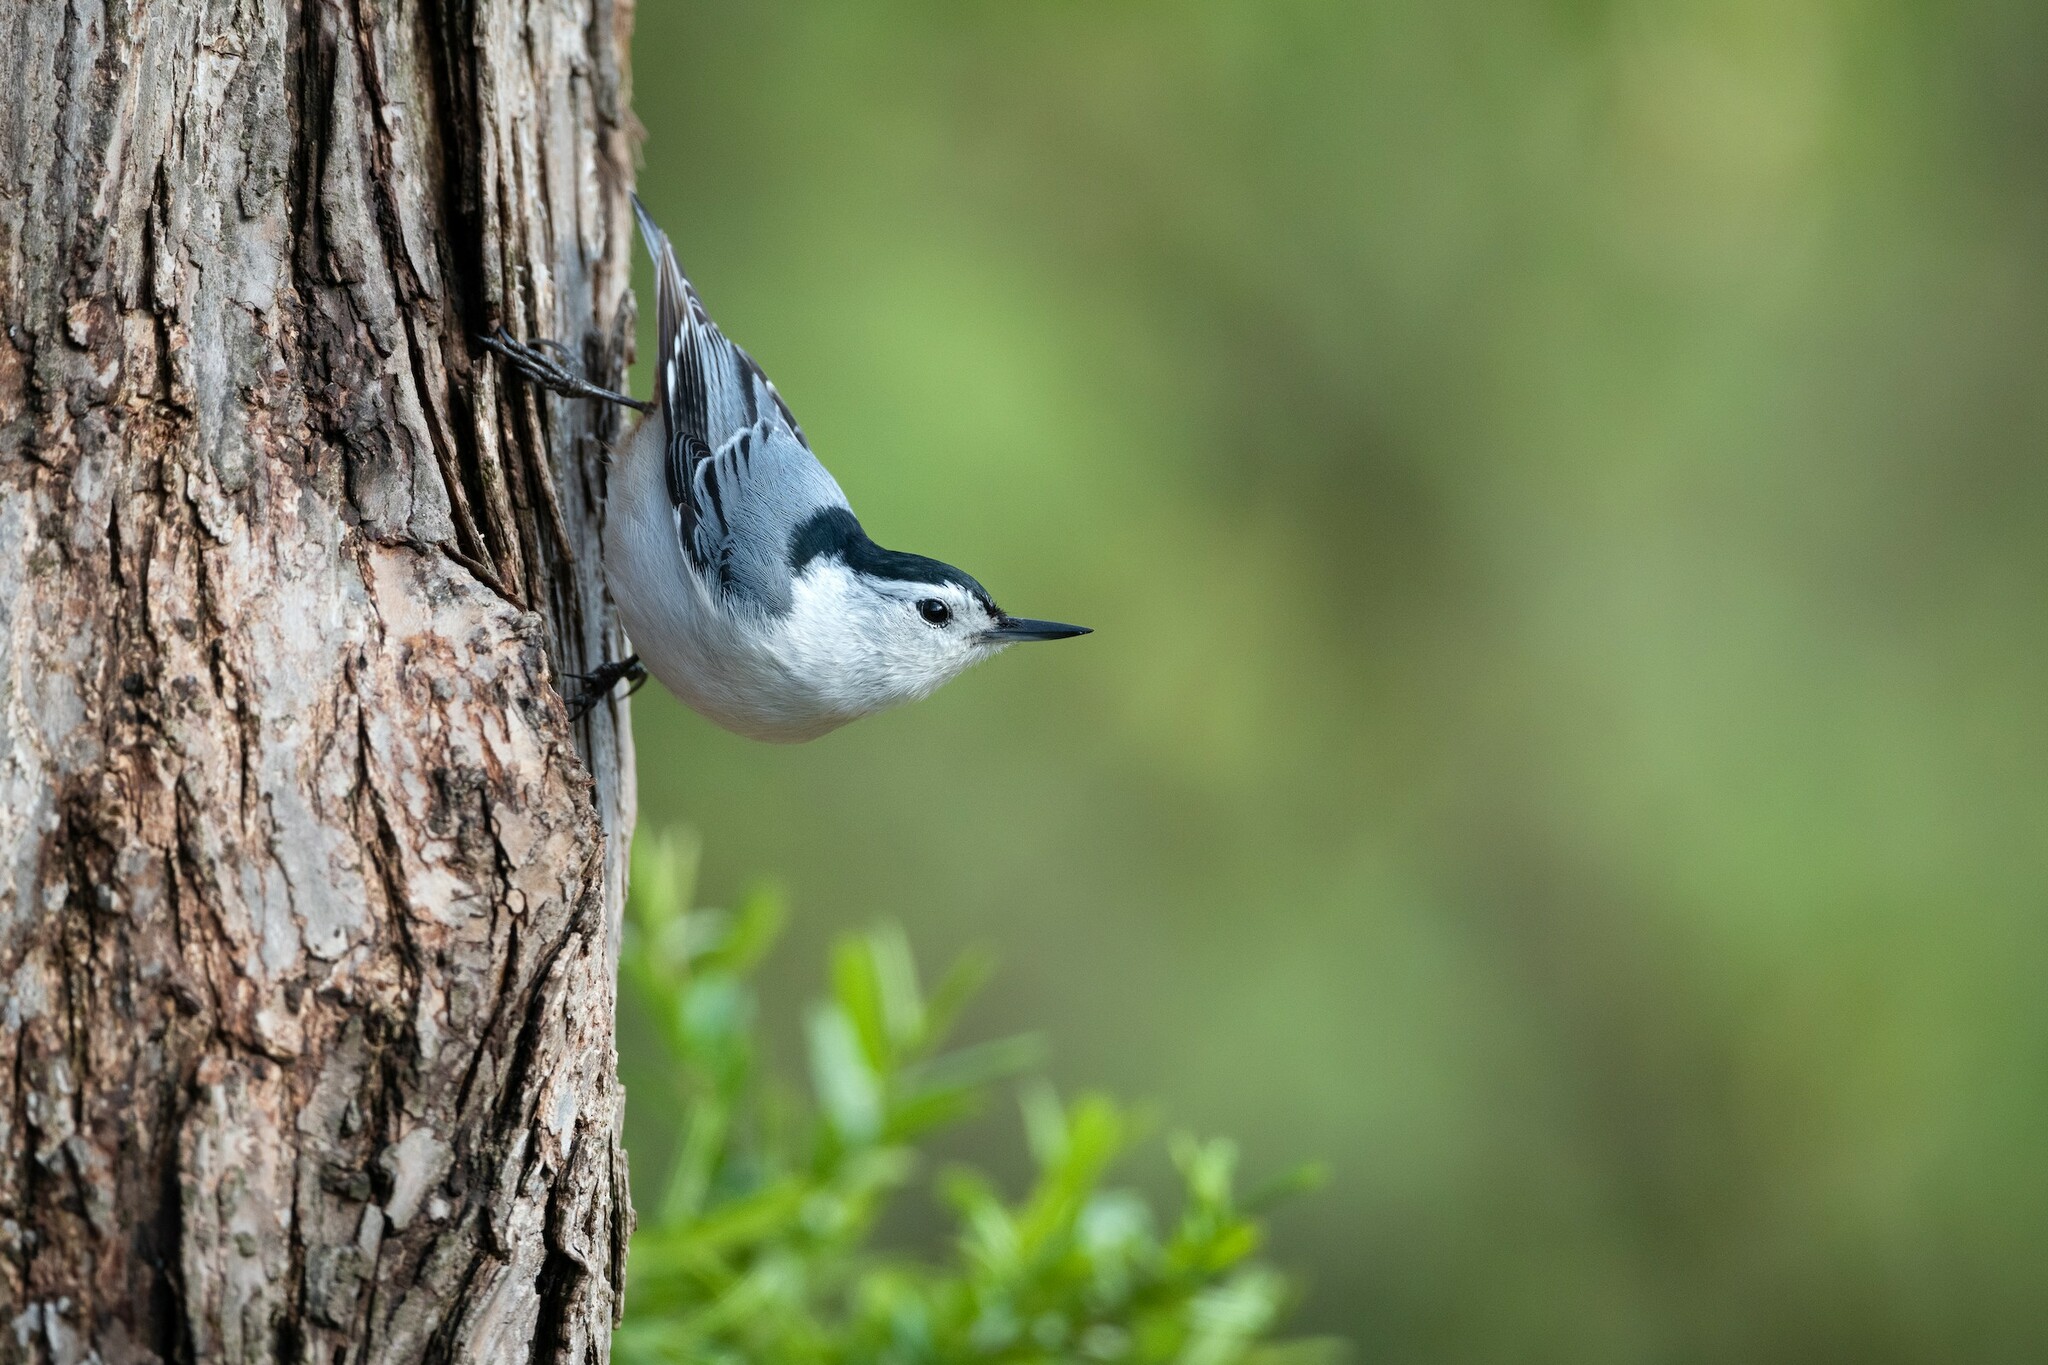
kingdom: Animalia
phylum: Chordata
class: Aves
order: Passeriformes
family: Sittidae
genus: Sitta
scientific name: Sitta carolinensis
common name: White-breasted nuthatch
